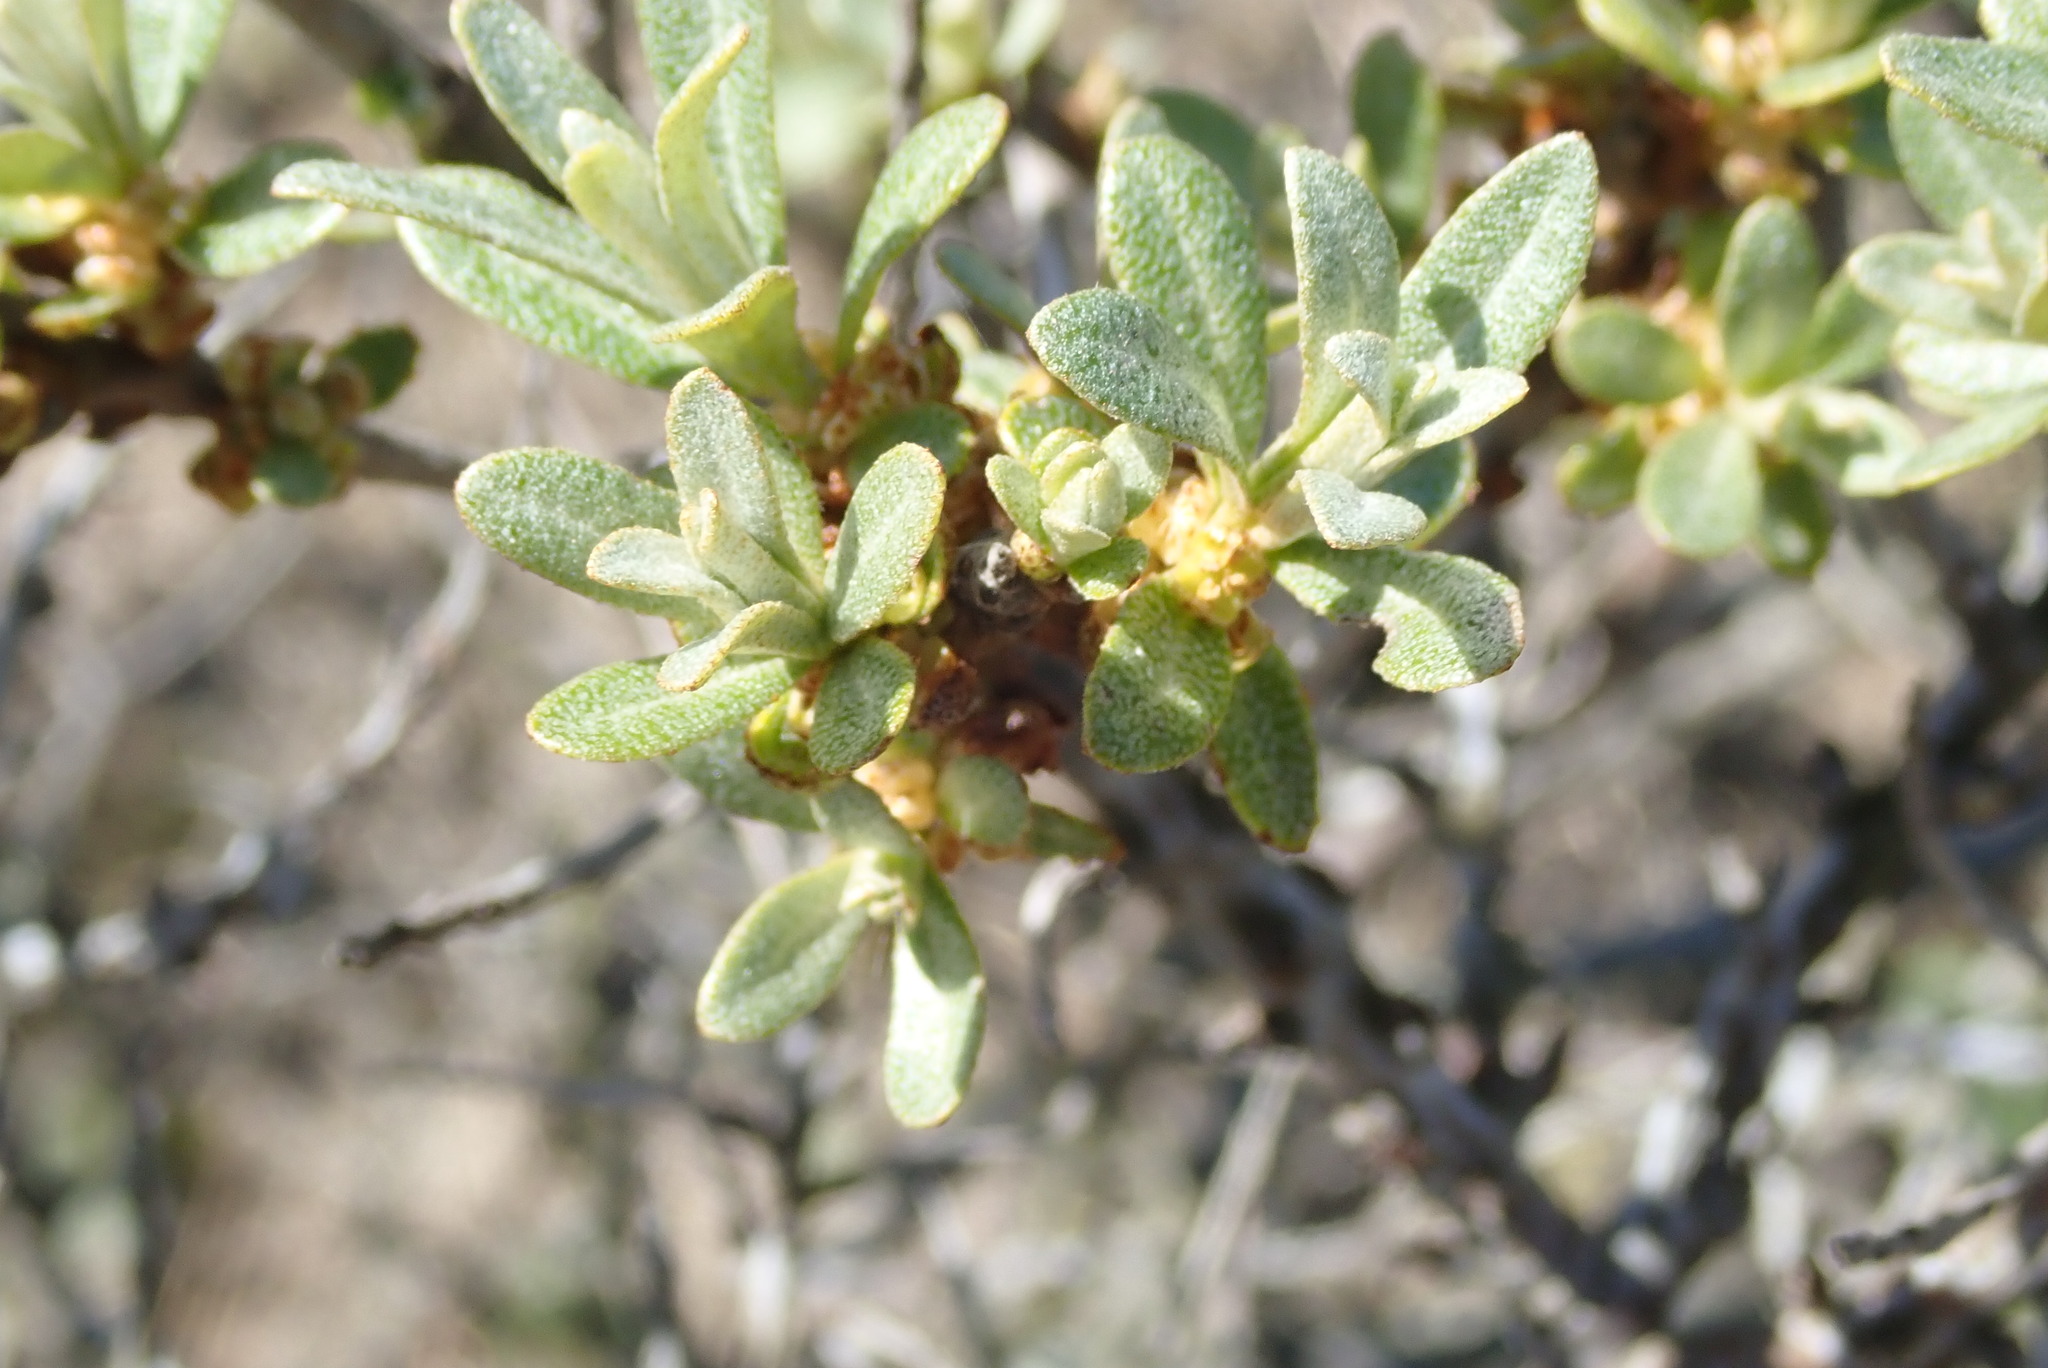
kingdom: Plantae
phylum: Tracheophyta
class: Magnoliopsida
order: Rosales
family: Elaeagnaceae
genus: Hippophae
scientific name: Hippophae rhamnoides
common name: Sea-buckthorn
